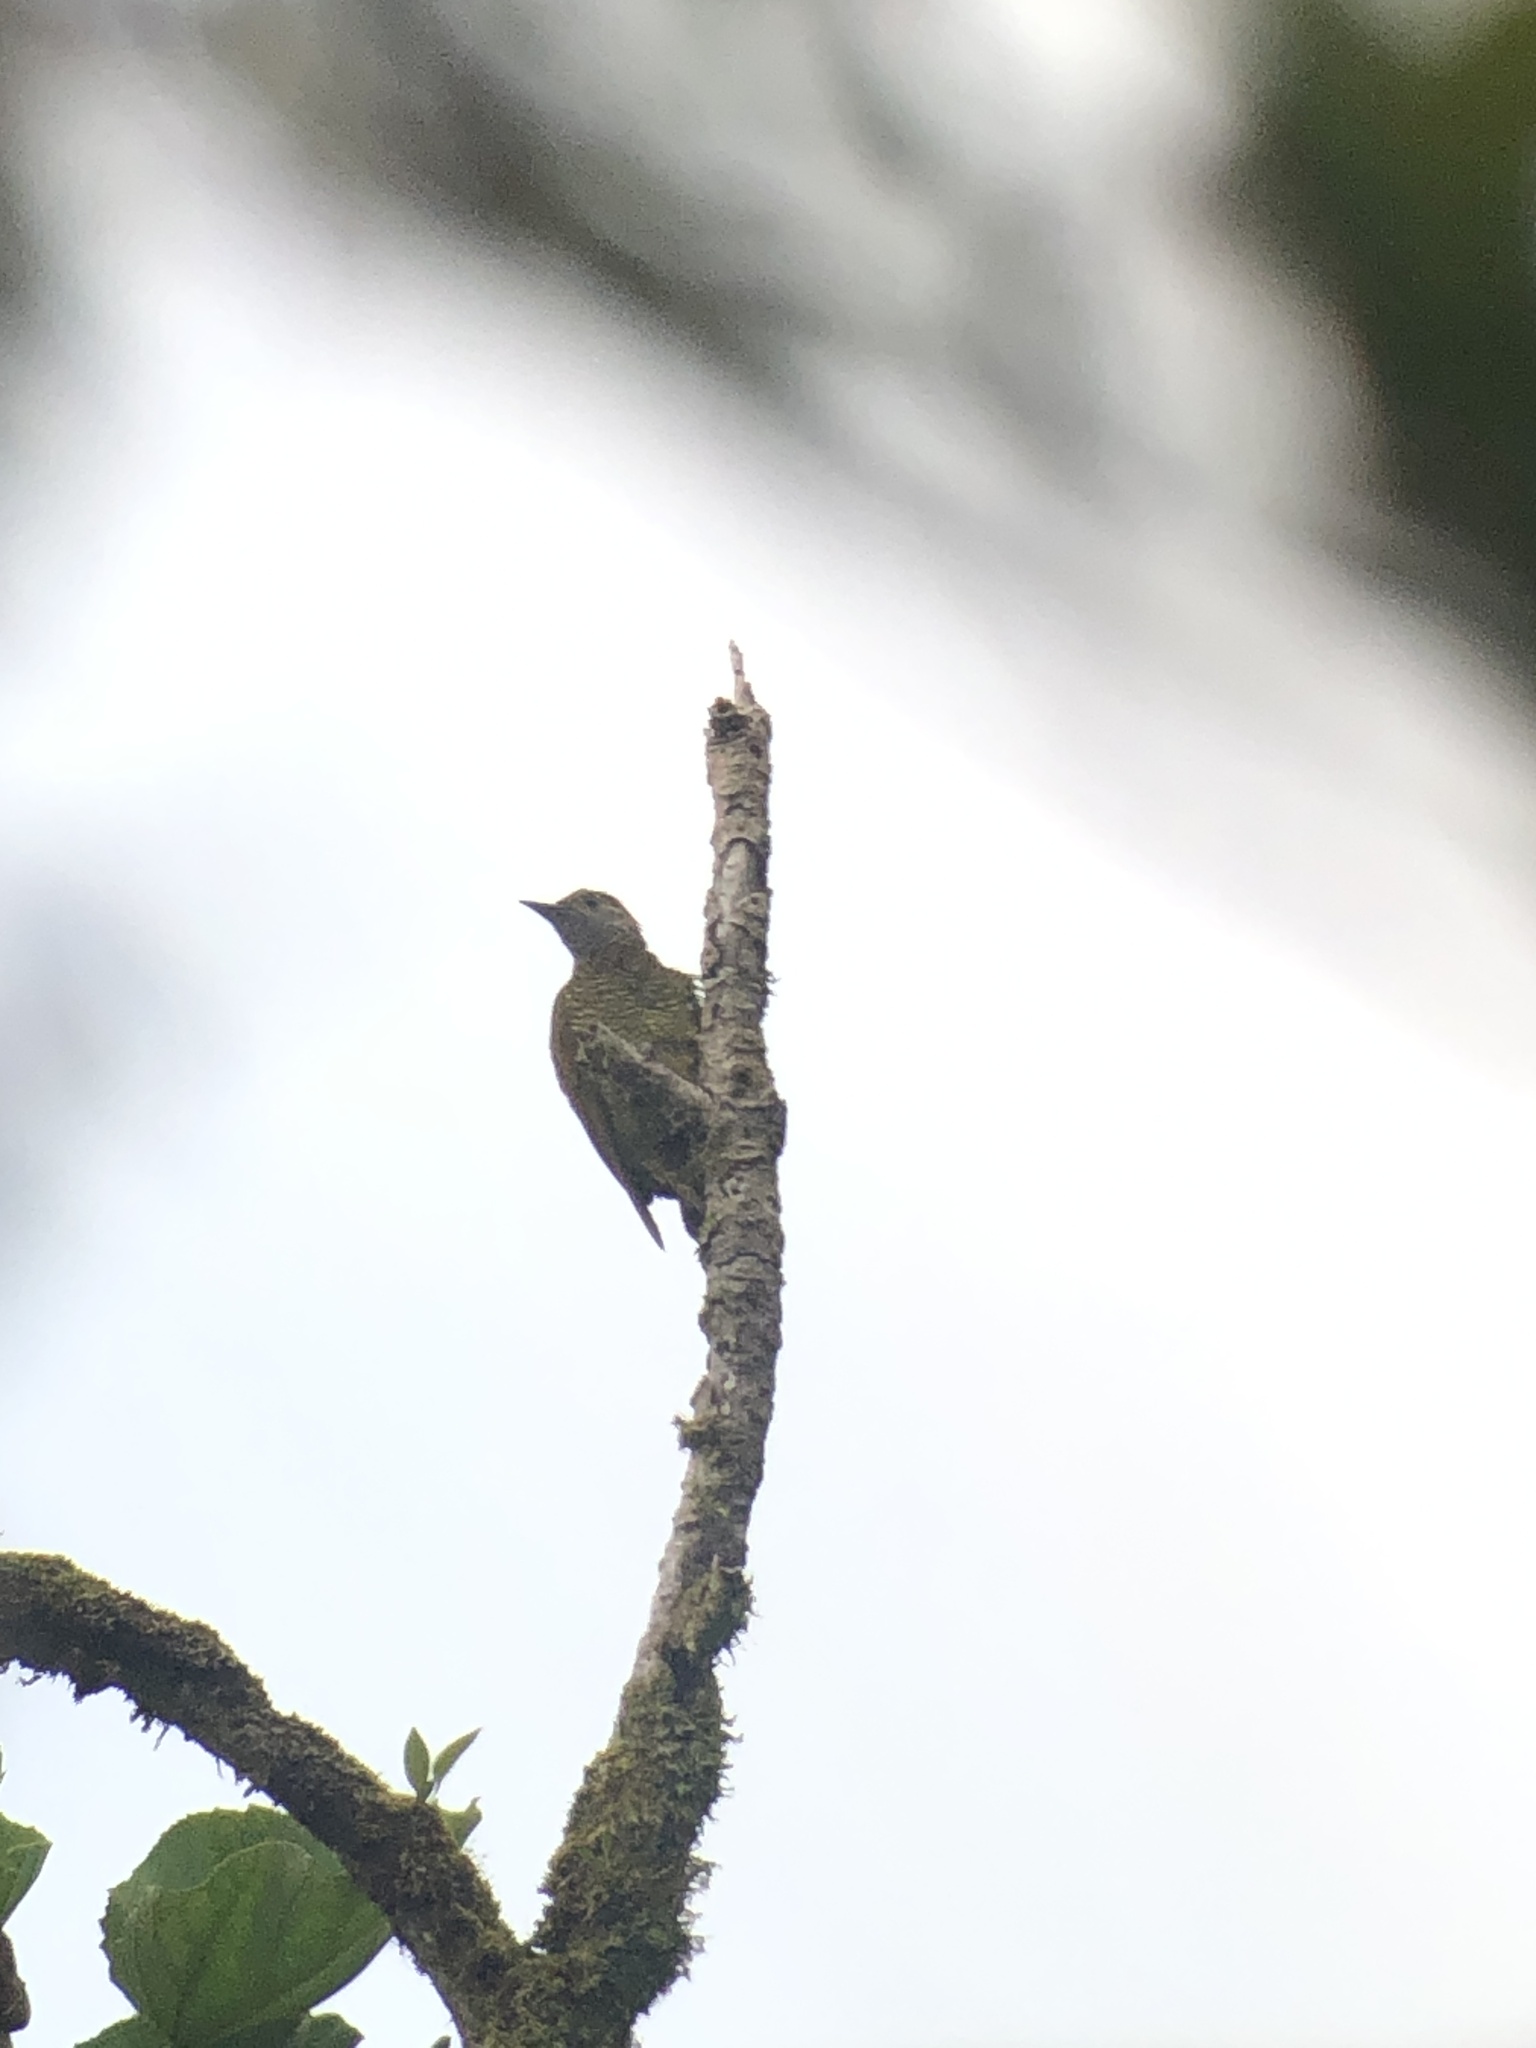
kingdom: Animalia
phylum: Chordata
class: Aves
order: Piciformes
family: Picidae
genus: Colaptes
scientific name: Colaptes rubiginosus
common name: Golden-olive woodpecker
